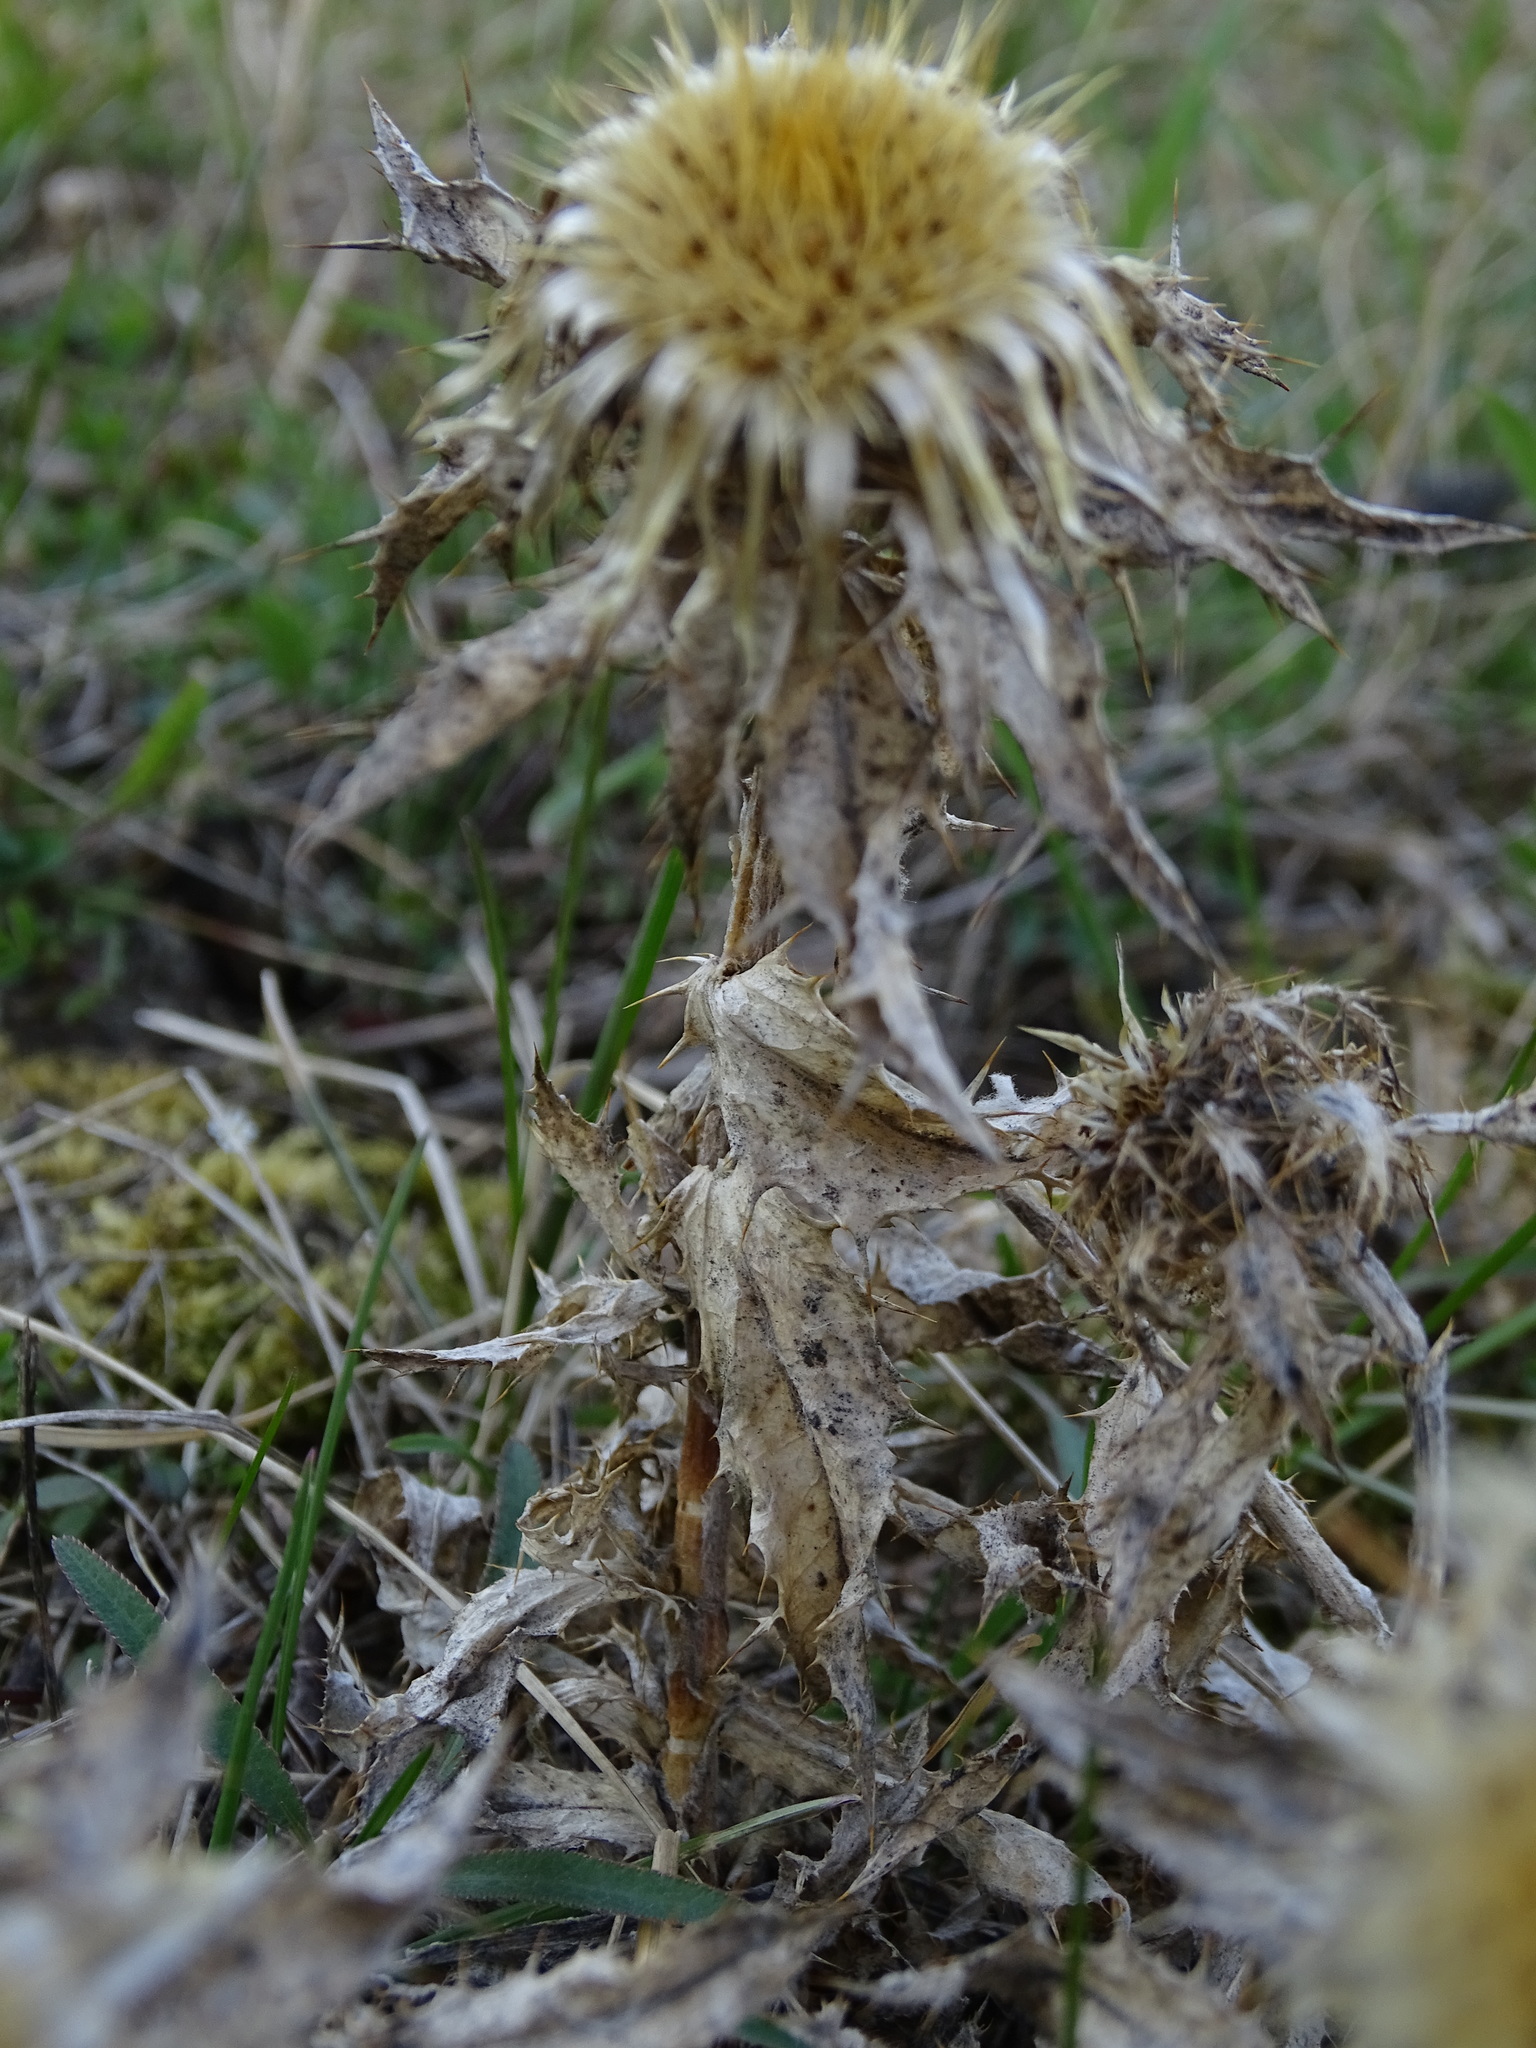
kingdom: Plantae
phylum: Tracheophyta
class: Magnoliopsida
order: Asterales
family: Asteraceae
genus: Carlina
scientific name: Carlina vulgaris
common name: Carline thistle
